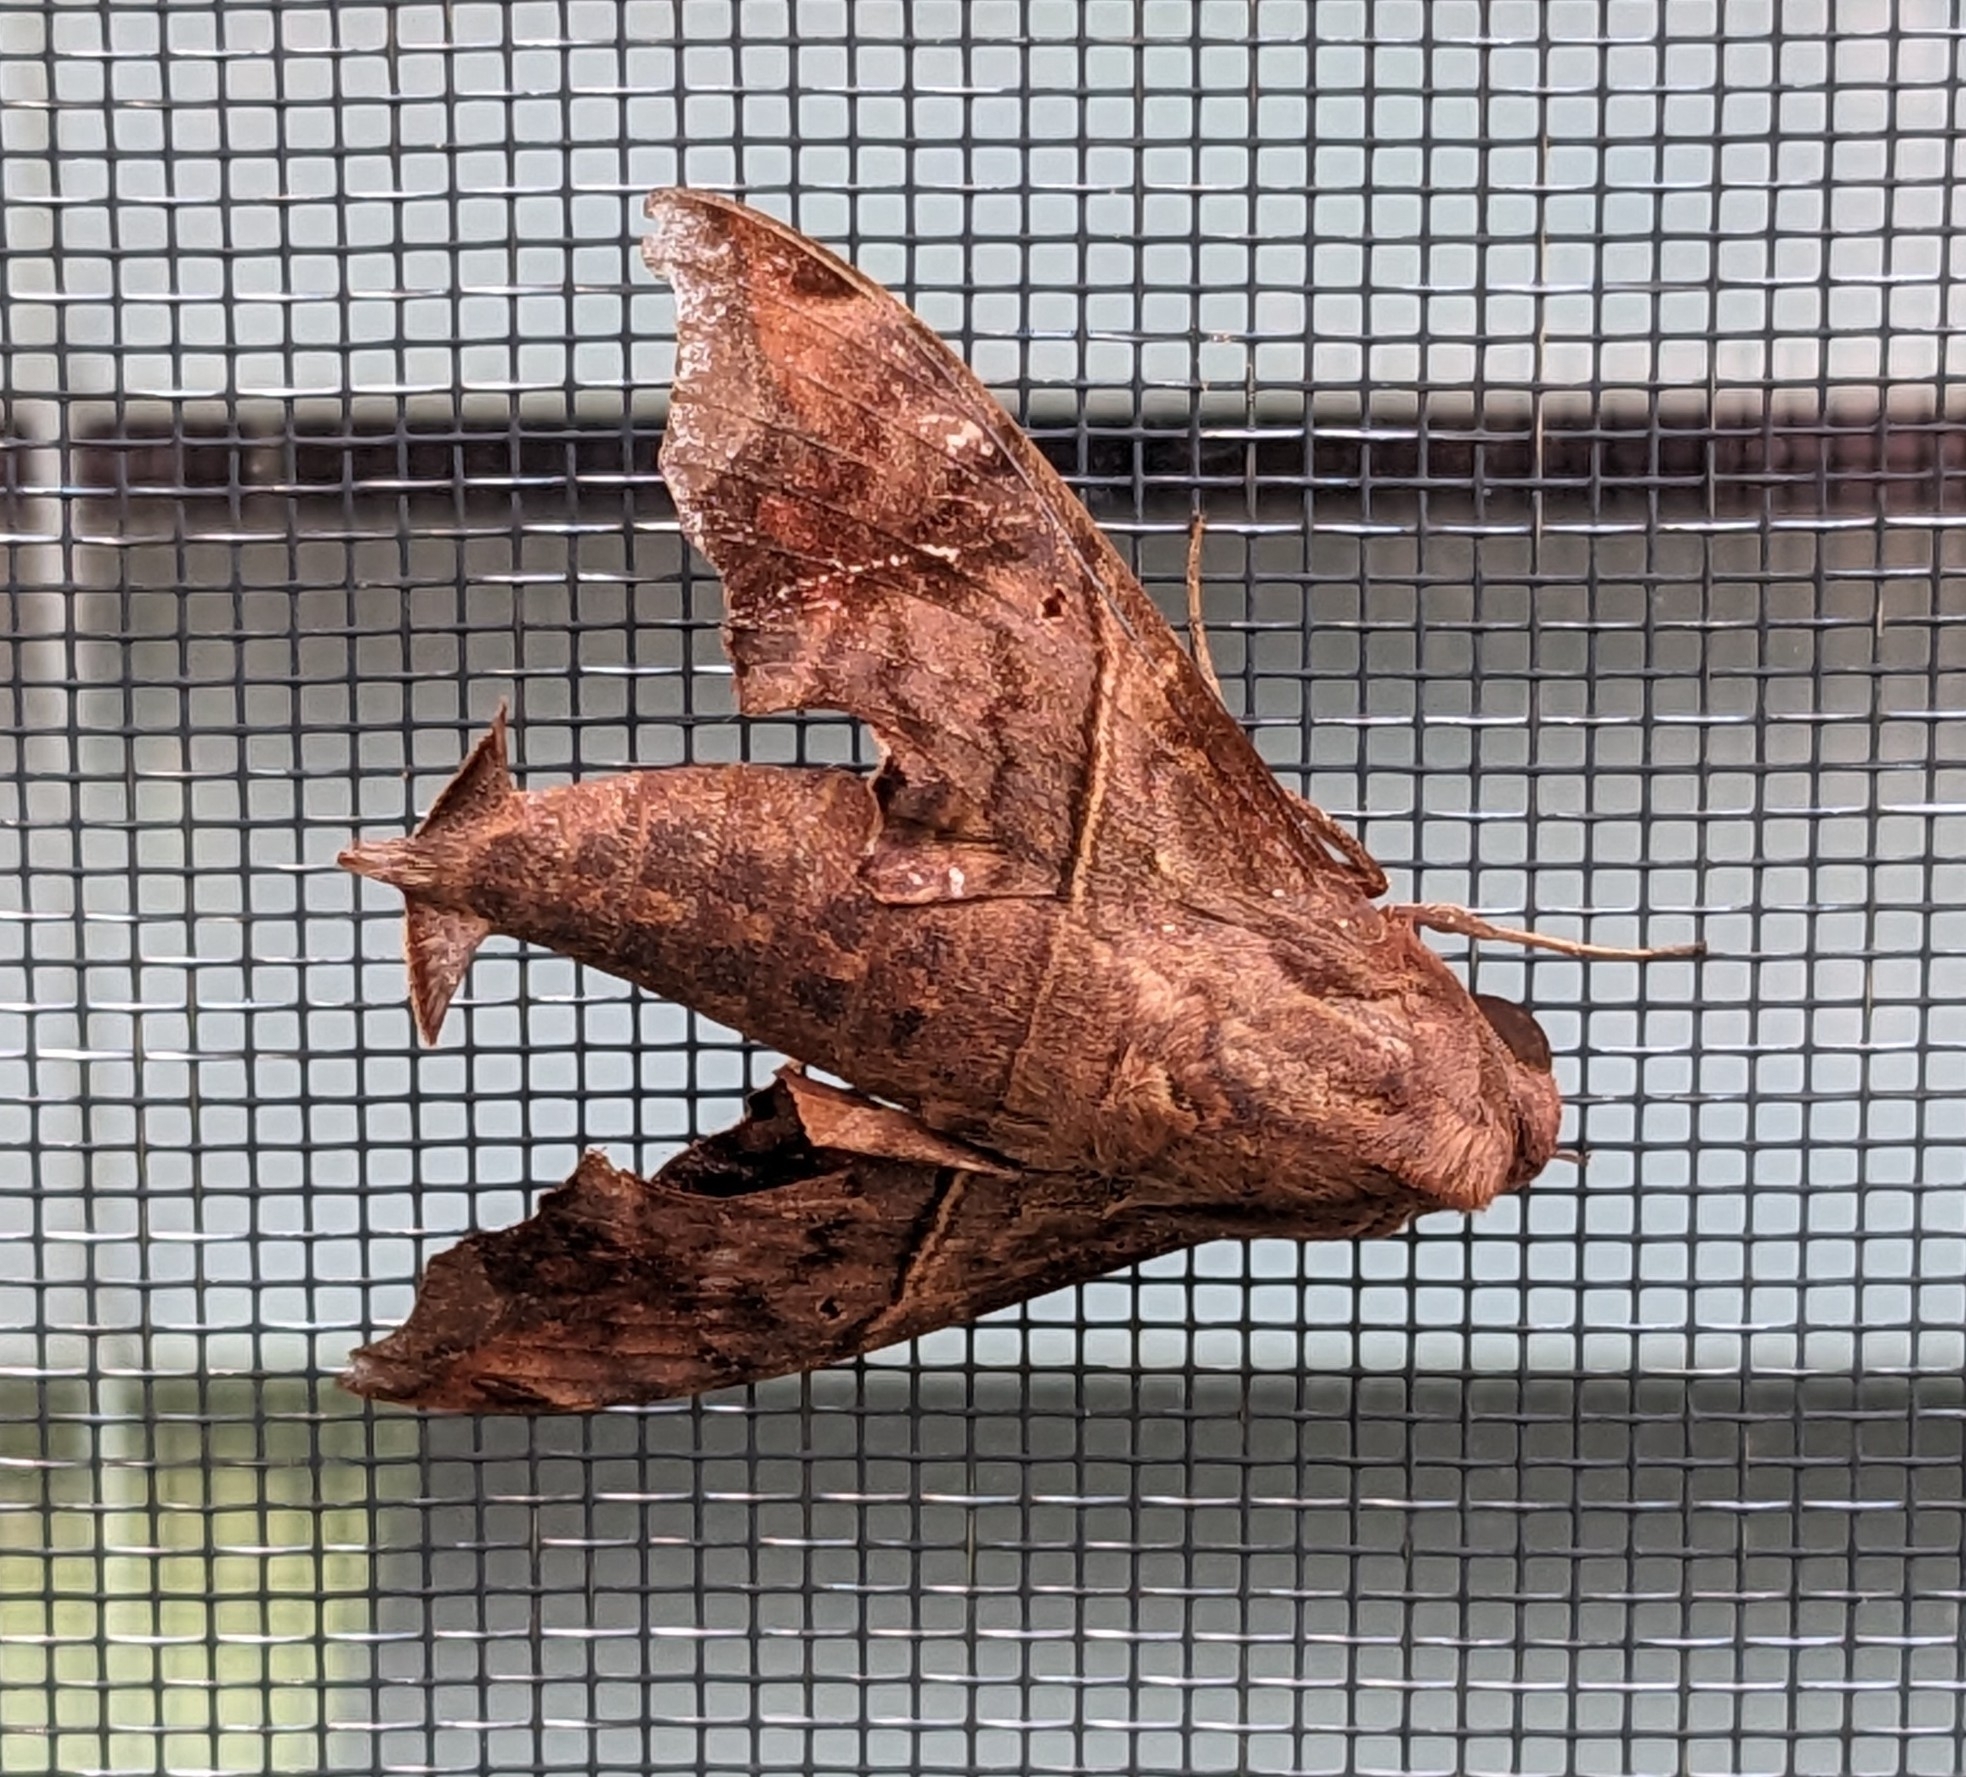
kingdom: Animalia
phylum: Arthropoda
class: Insecta
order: Lepidoptera
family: Sphingidae
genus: Enyo
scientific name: Enyo lugubris
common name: Mournful sphinx
